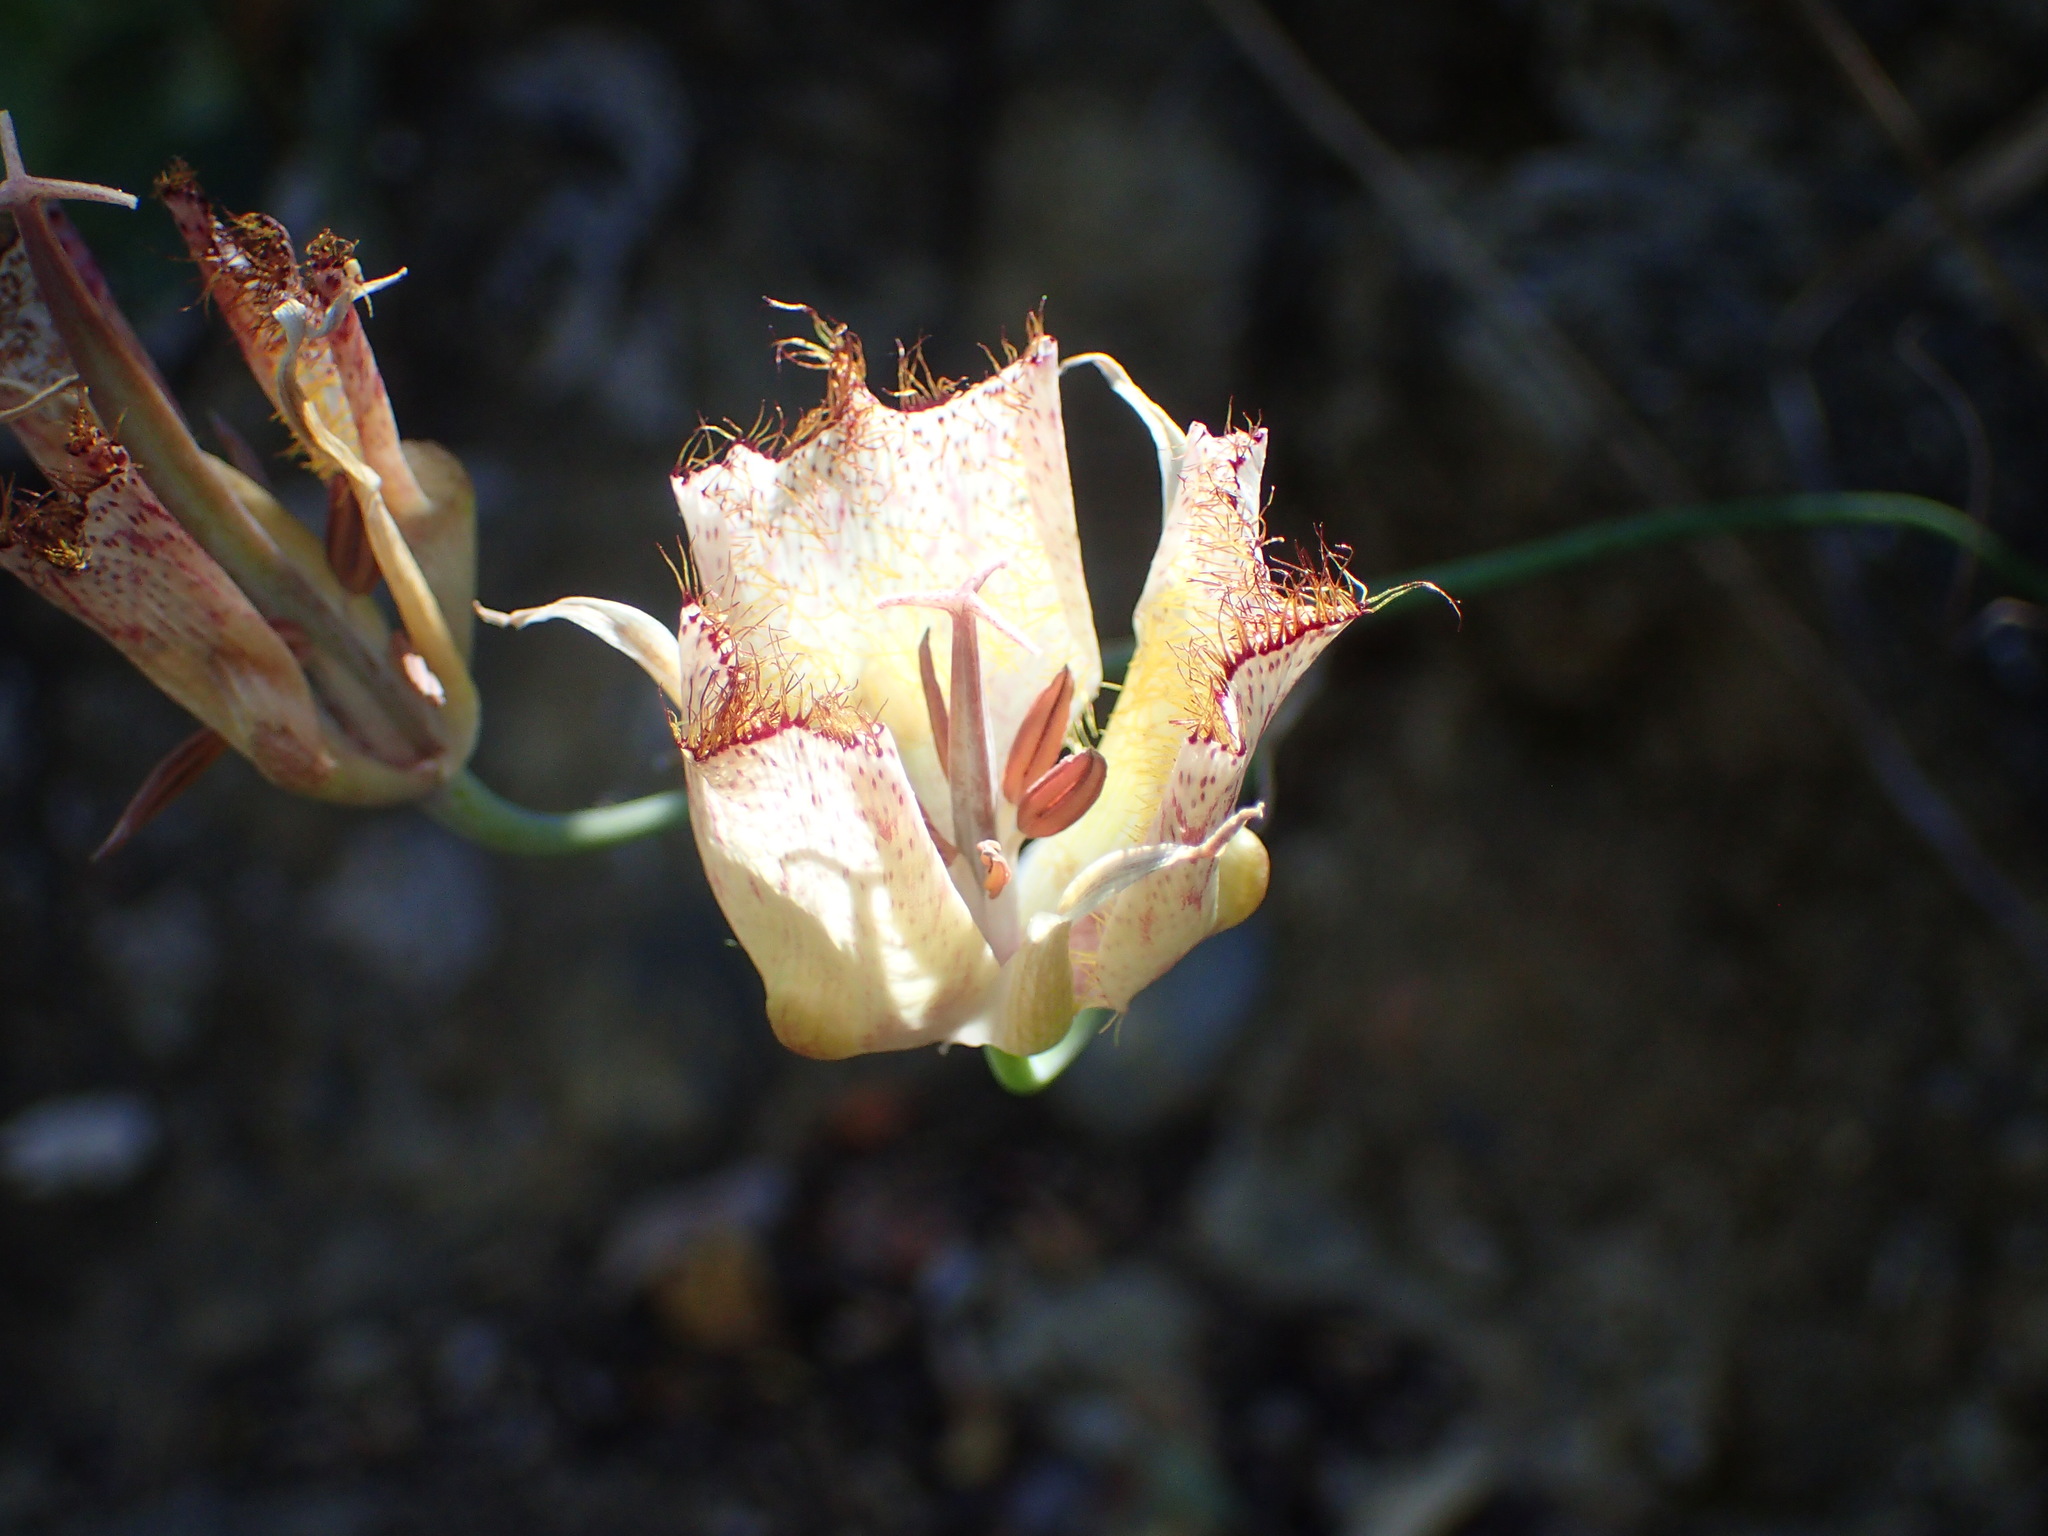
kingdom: Plantae
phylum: Tracheophyta
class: Liliopsida
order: Liliales
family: Liliaceae
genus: Calochortus
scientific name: Calochortus fimbriatus
